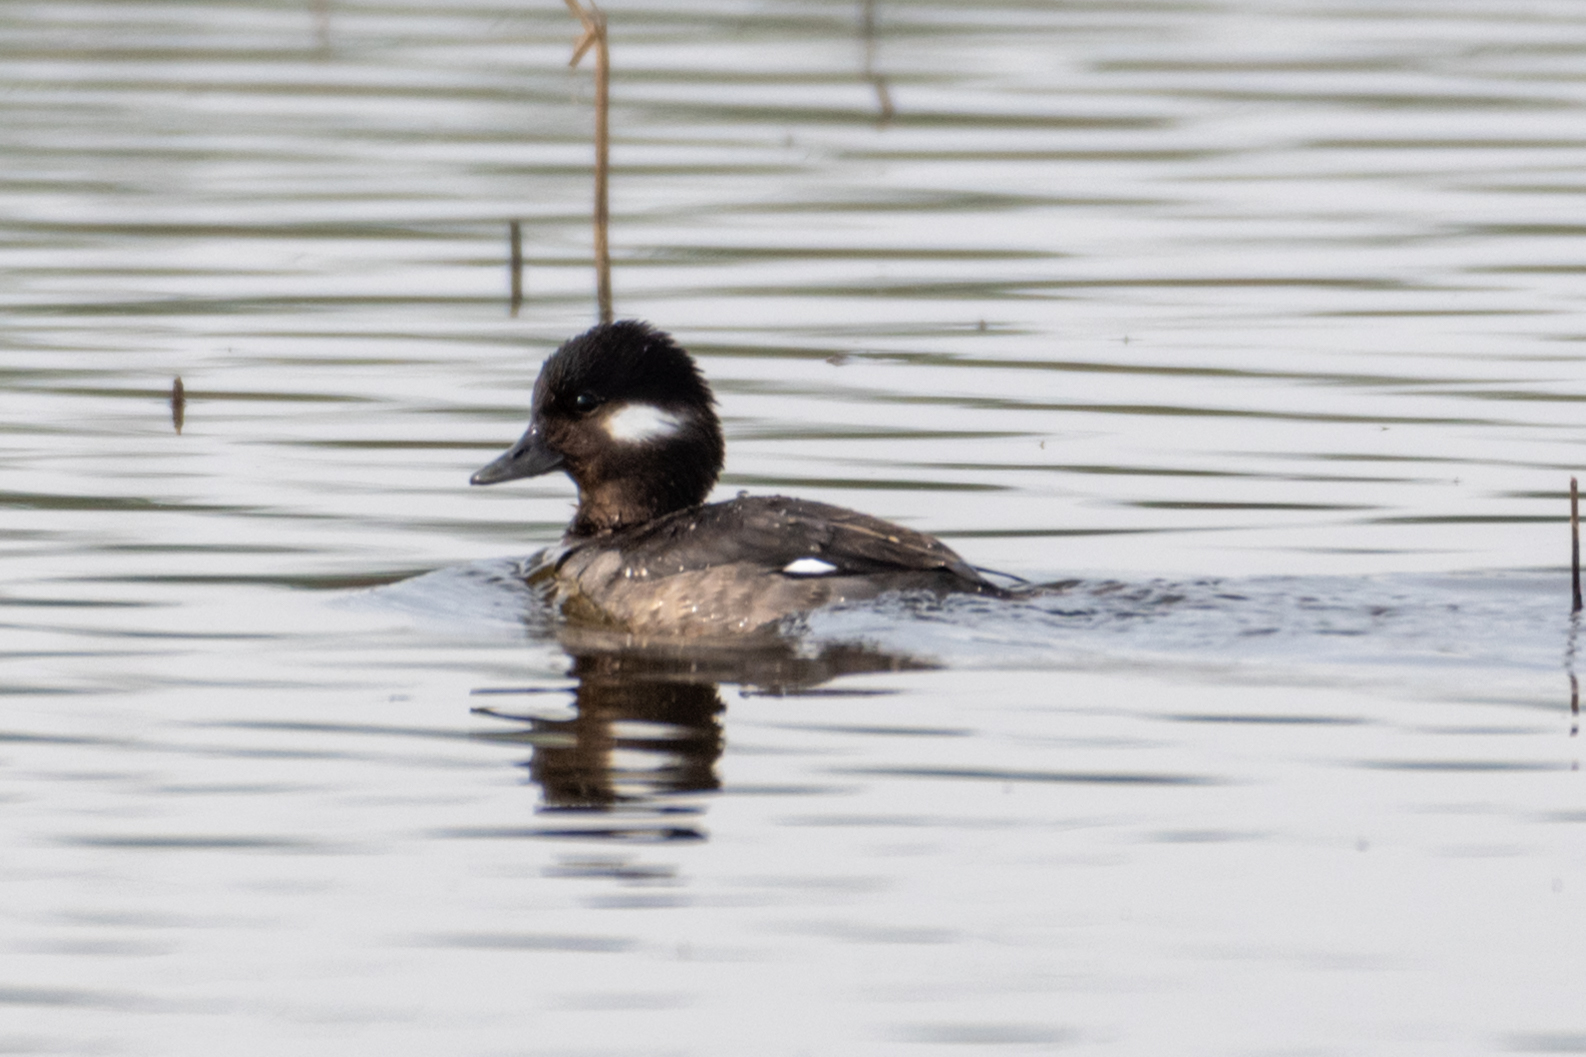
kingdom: Animalia
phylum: Chordata
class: Aves
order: Anseriformes
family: Anatidae
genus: Bucephala
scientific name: Bucephala albeola
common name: Bufflehead
